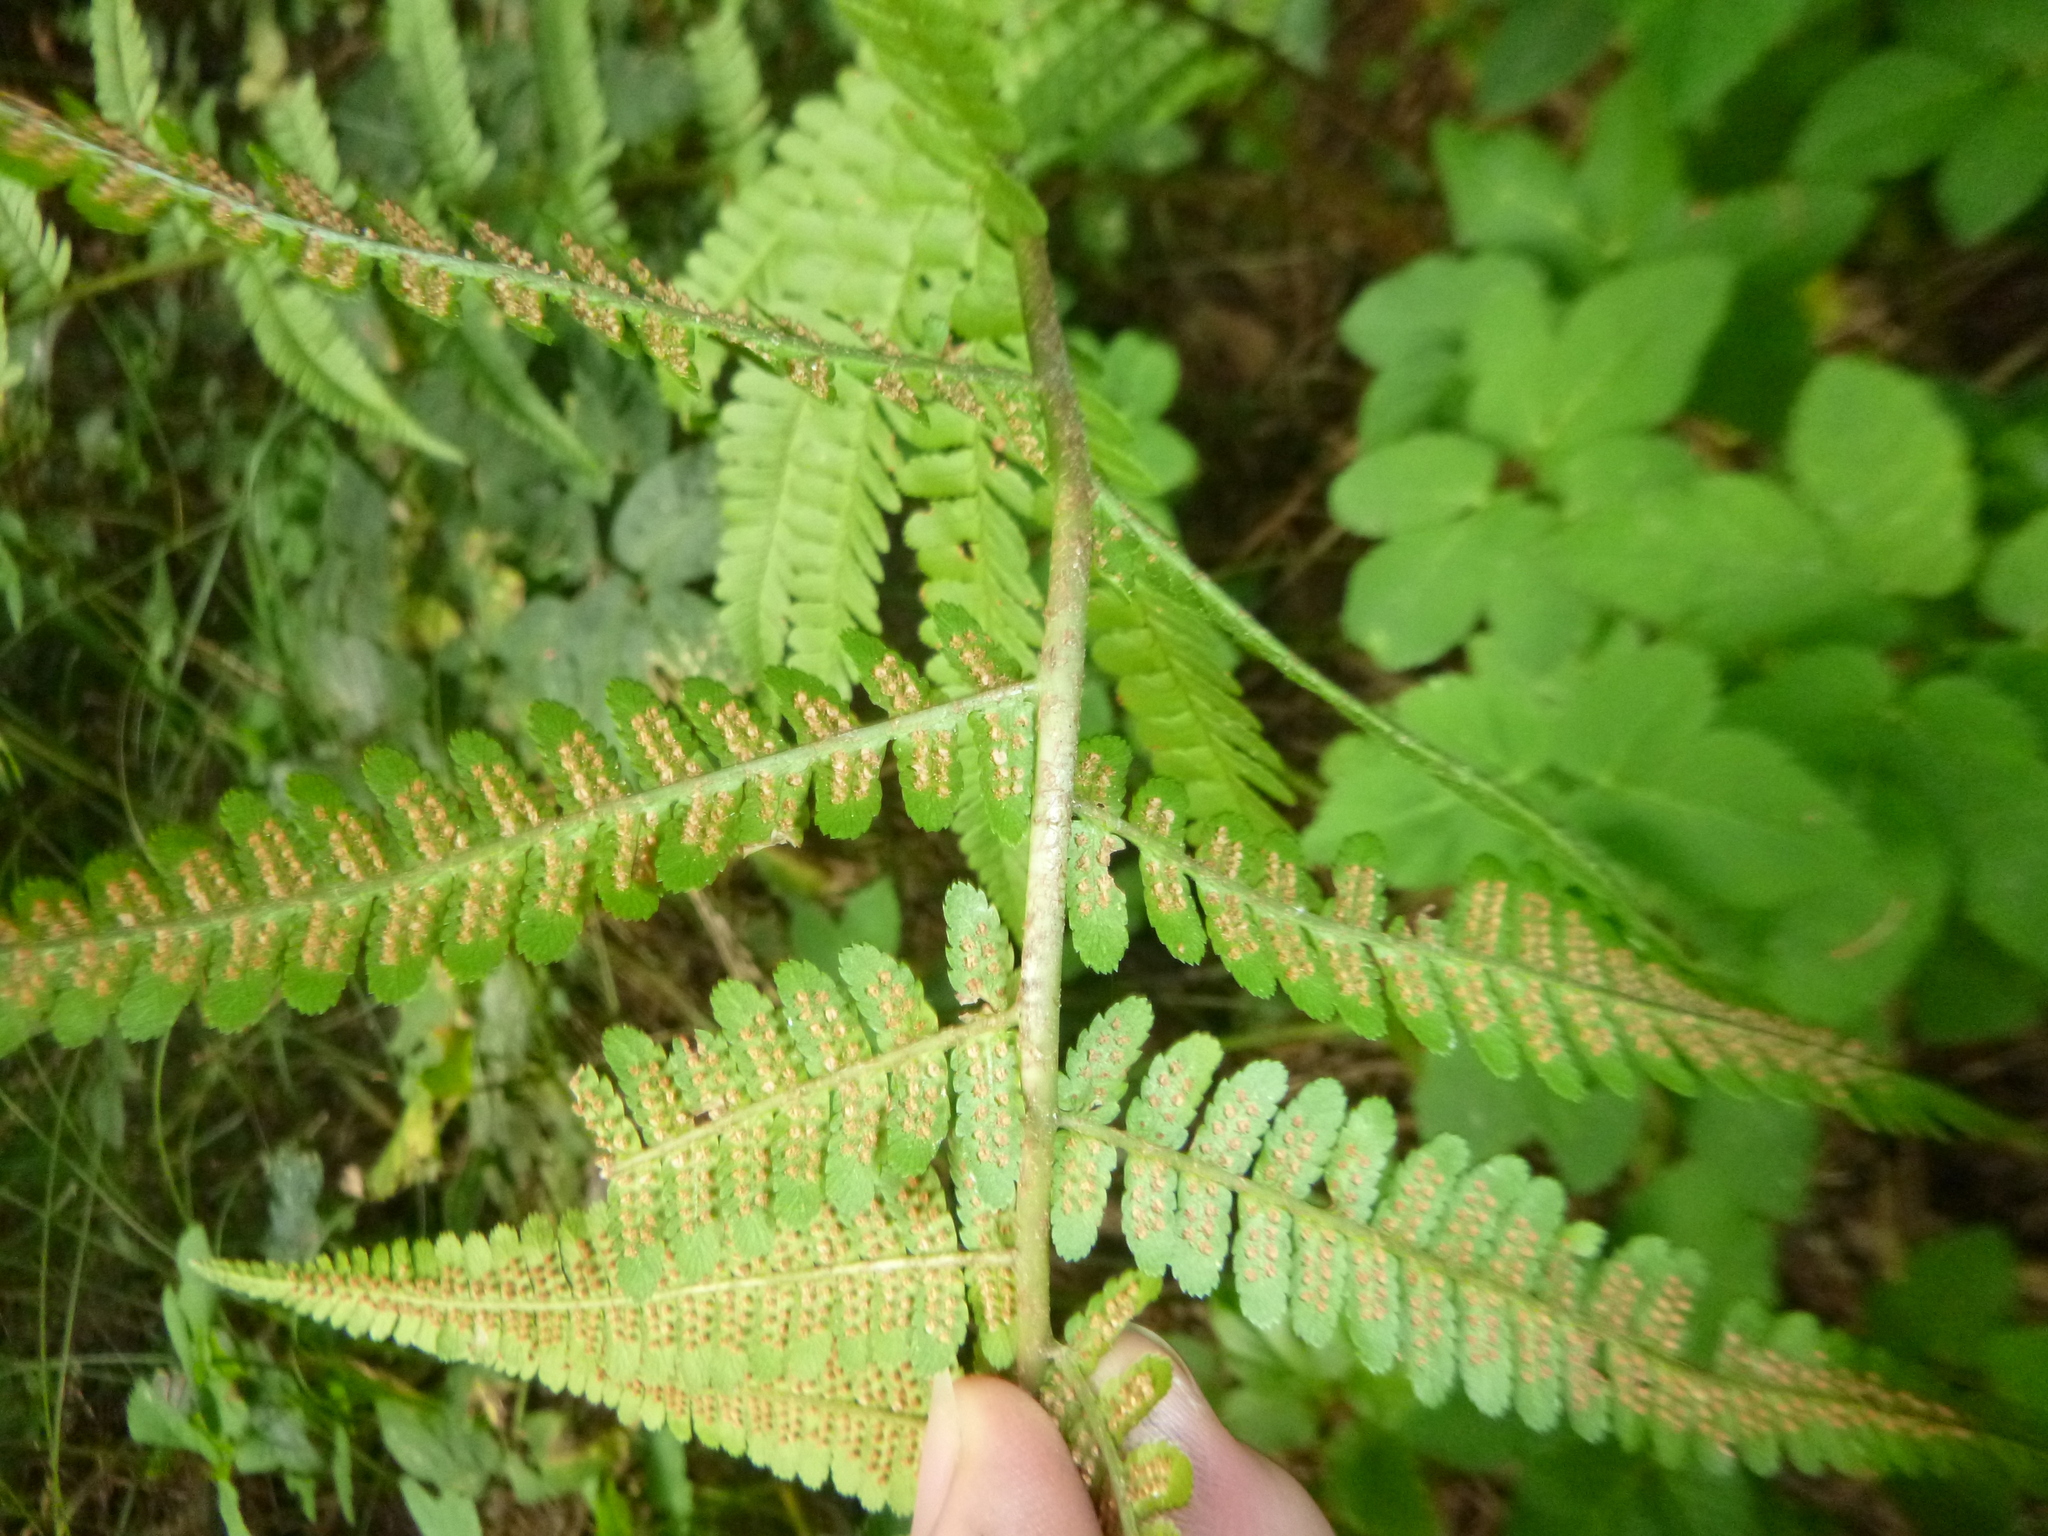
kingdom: Plantae
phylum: Tracheophyta
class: Polypodiopsida
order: Polypodiales
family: Dryopteridaceae
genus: Dryopteris
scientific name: Dryopteris filix-mas
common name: Male fern
